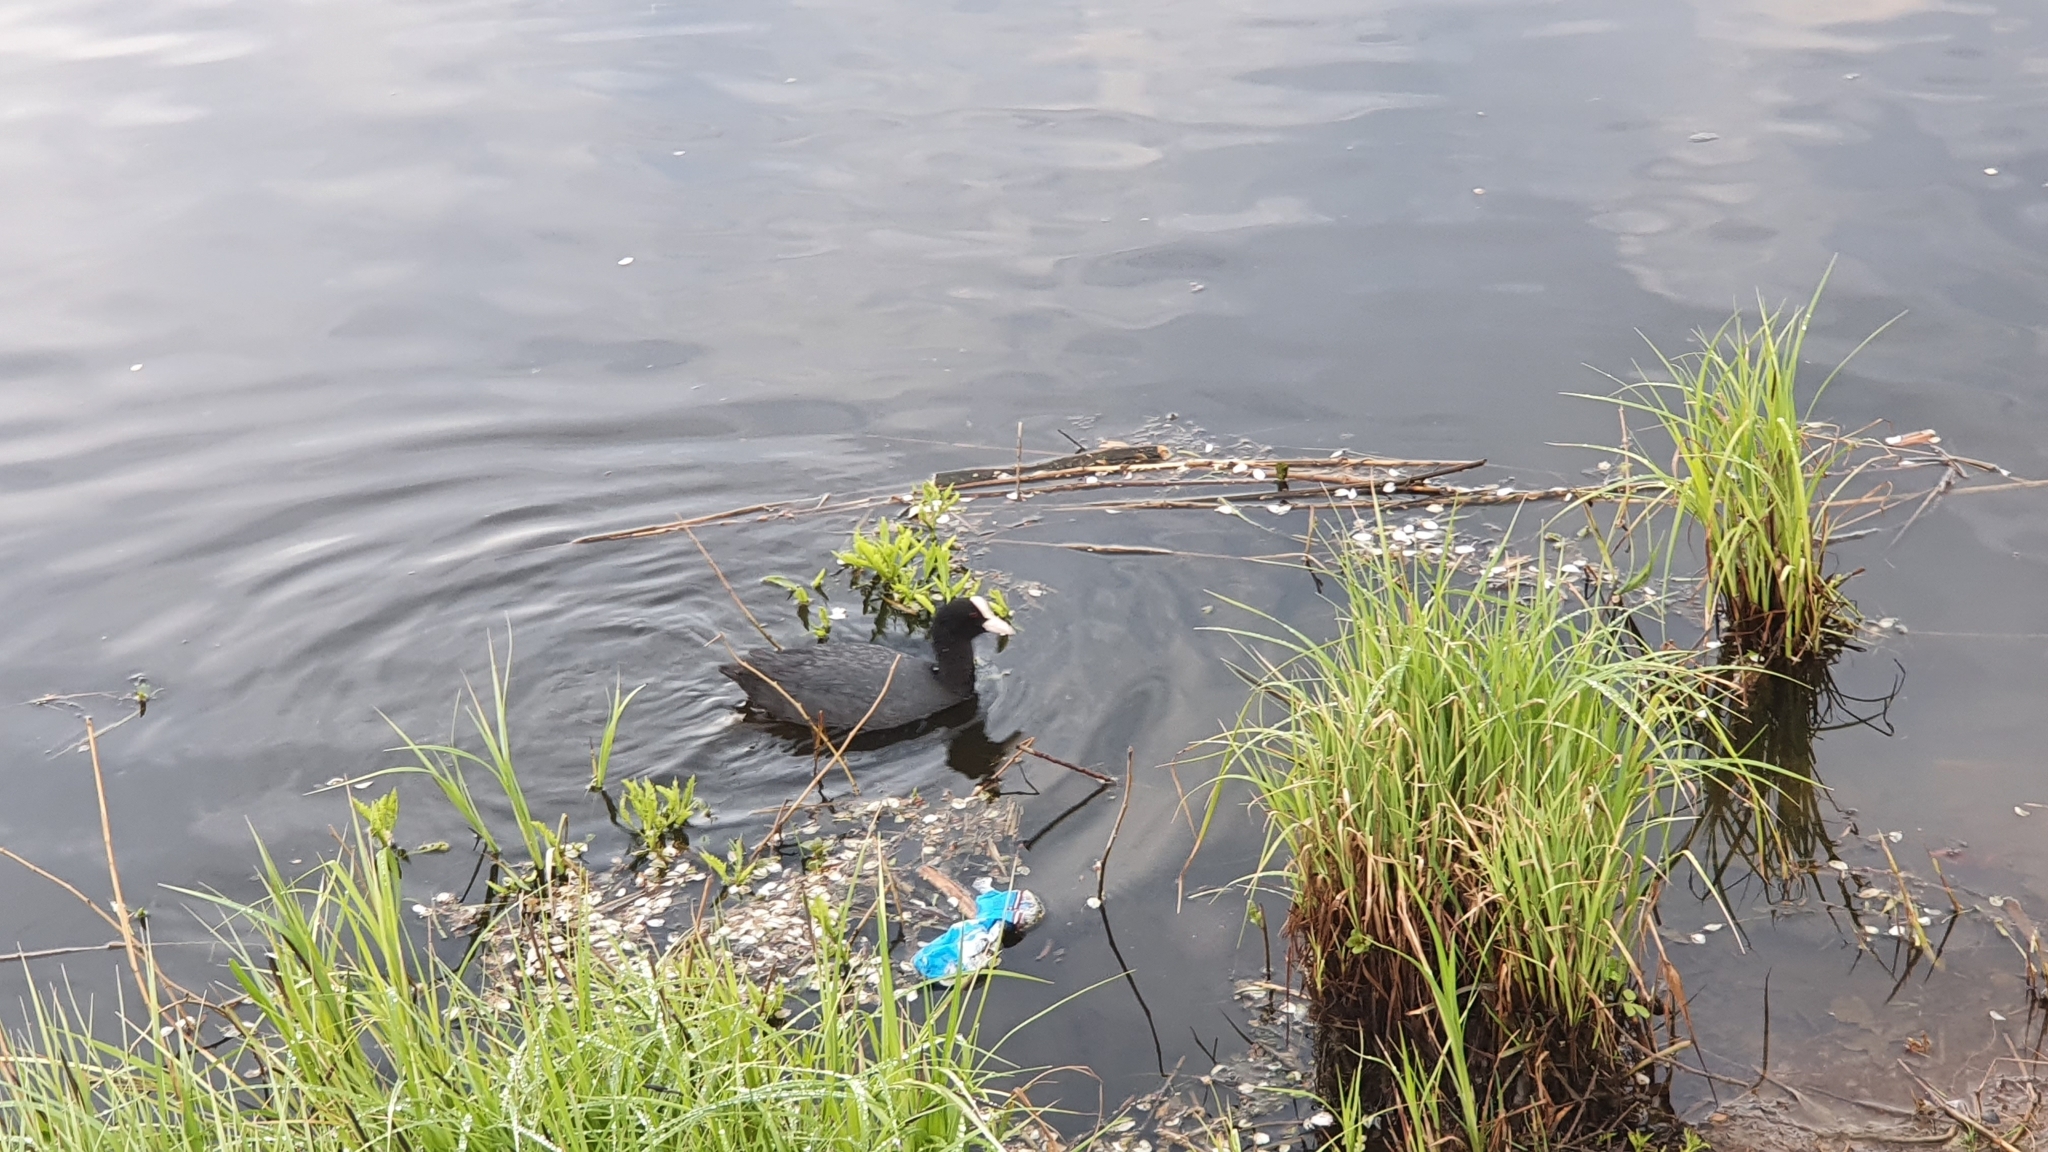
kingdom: Animalia
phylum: Chordata
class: Aves
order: Gruiformes
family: Rallidae
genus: Fulica
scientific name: Fulica atra
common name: Eurasian coot
